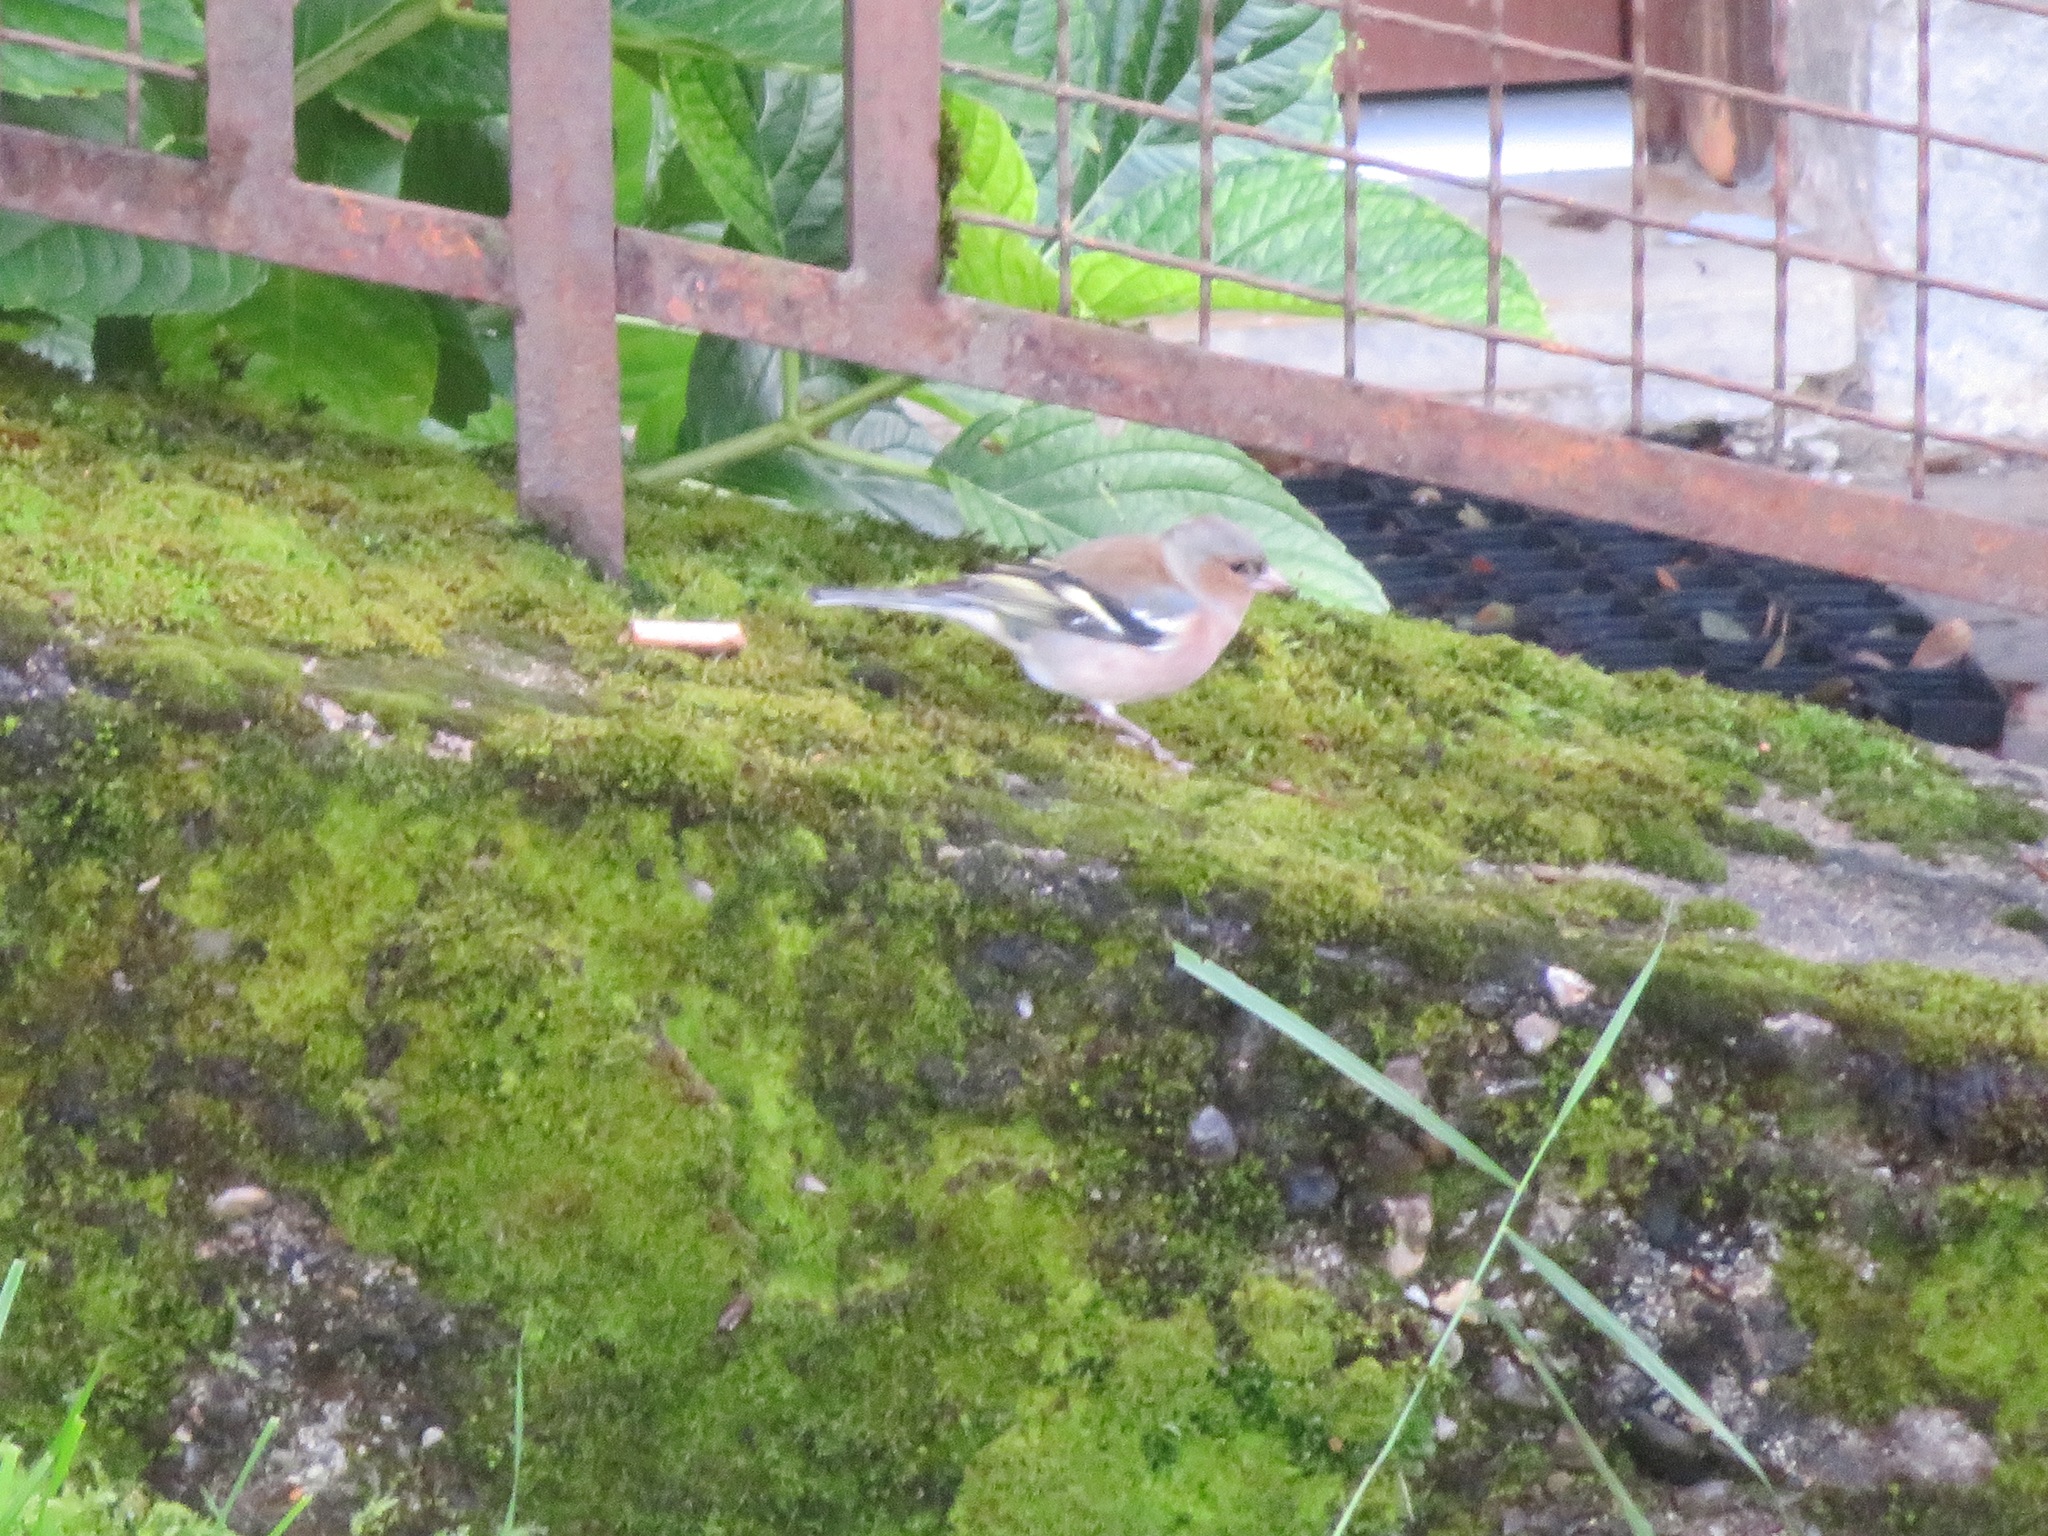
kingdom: Animalia
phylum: Chordata
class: Aves
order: Passeriformes
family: Fringillidae
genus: Fringilla
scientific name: Fringilla coelebs
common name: Common chaffinch
